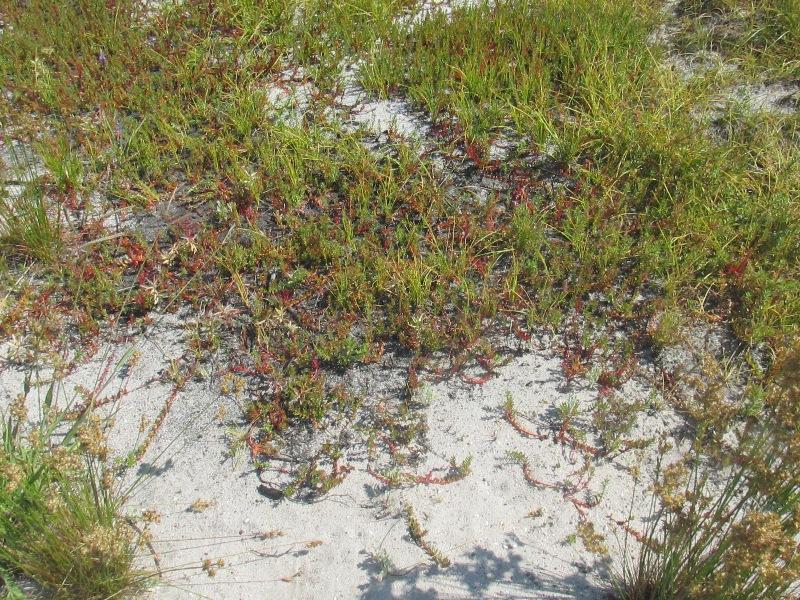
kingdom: Plantae
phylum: Tracheophyta
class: Magnoliopsida
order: Saxifragales
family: Haloragaceae
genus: Laurembergia
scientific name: Laurembergia repens
